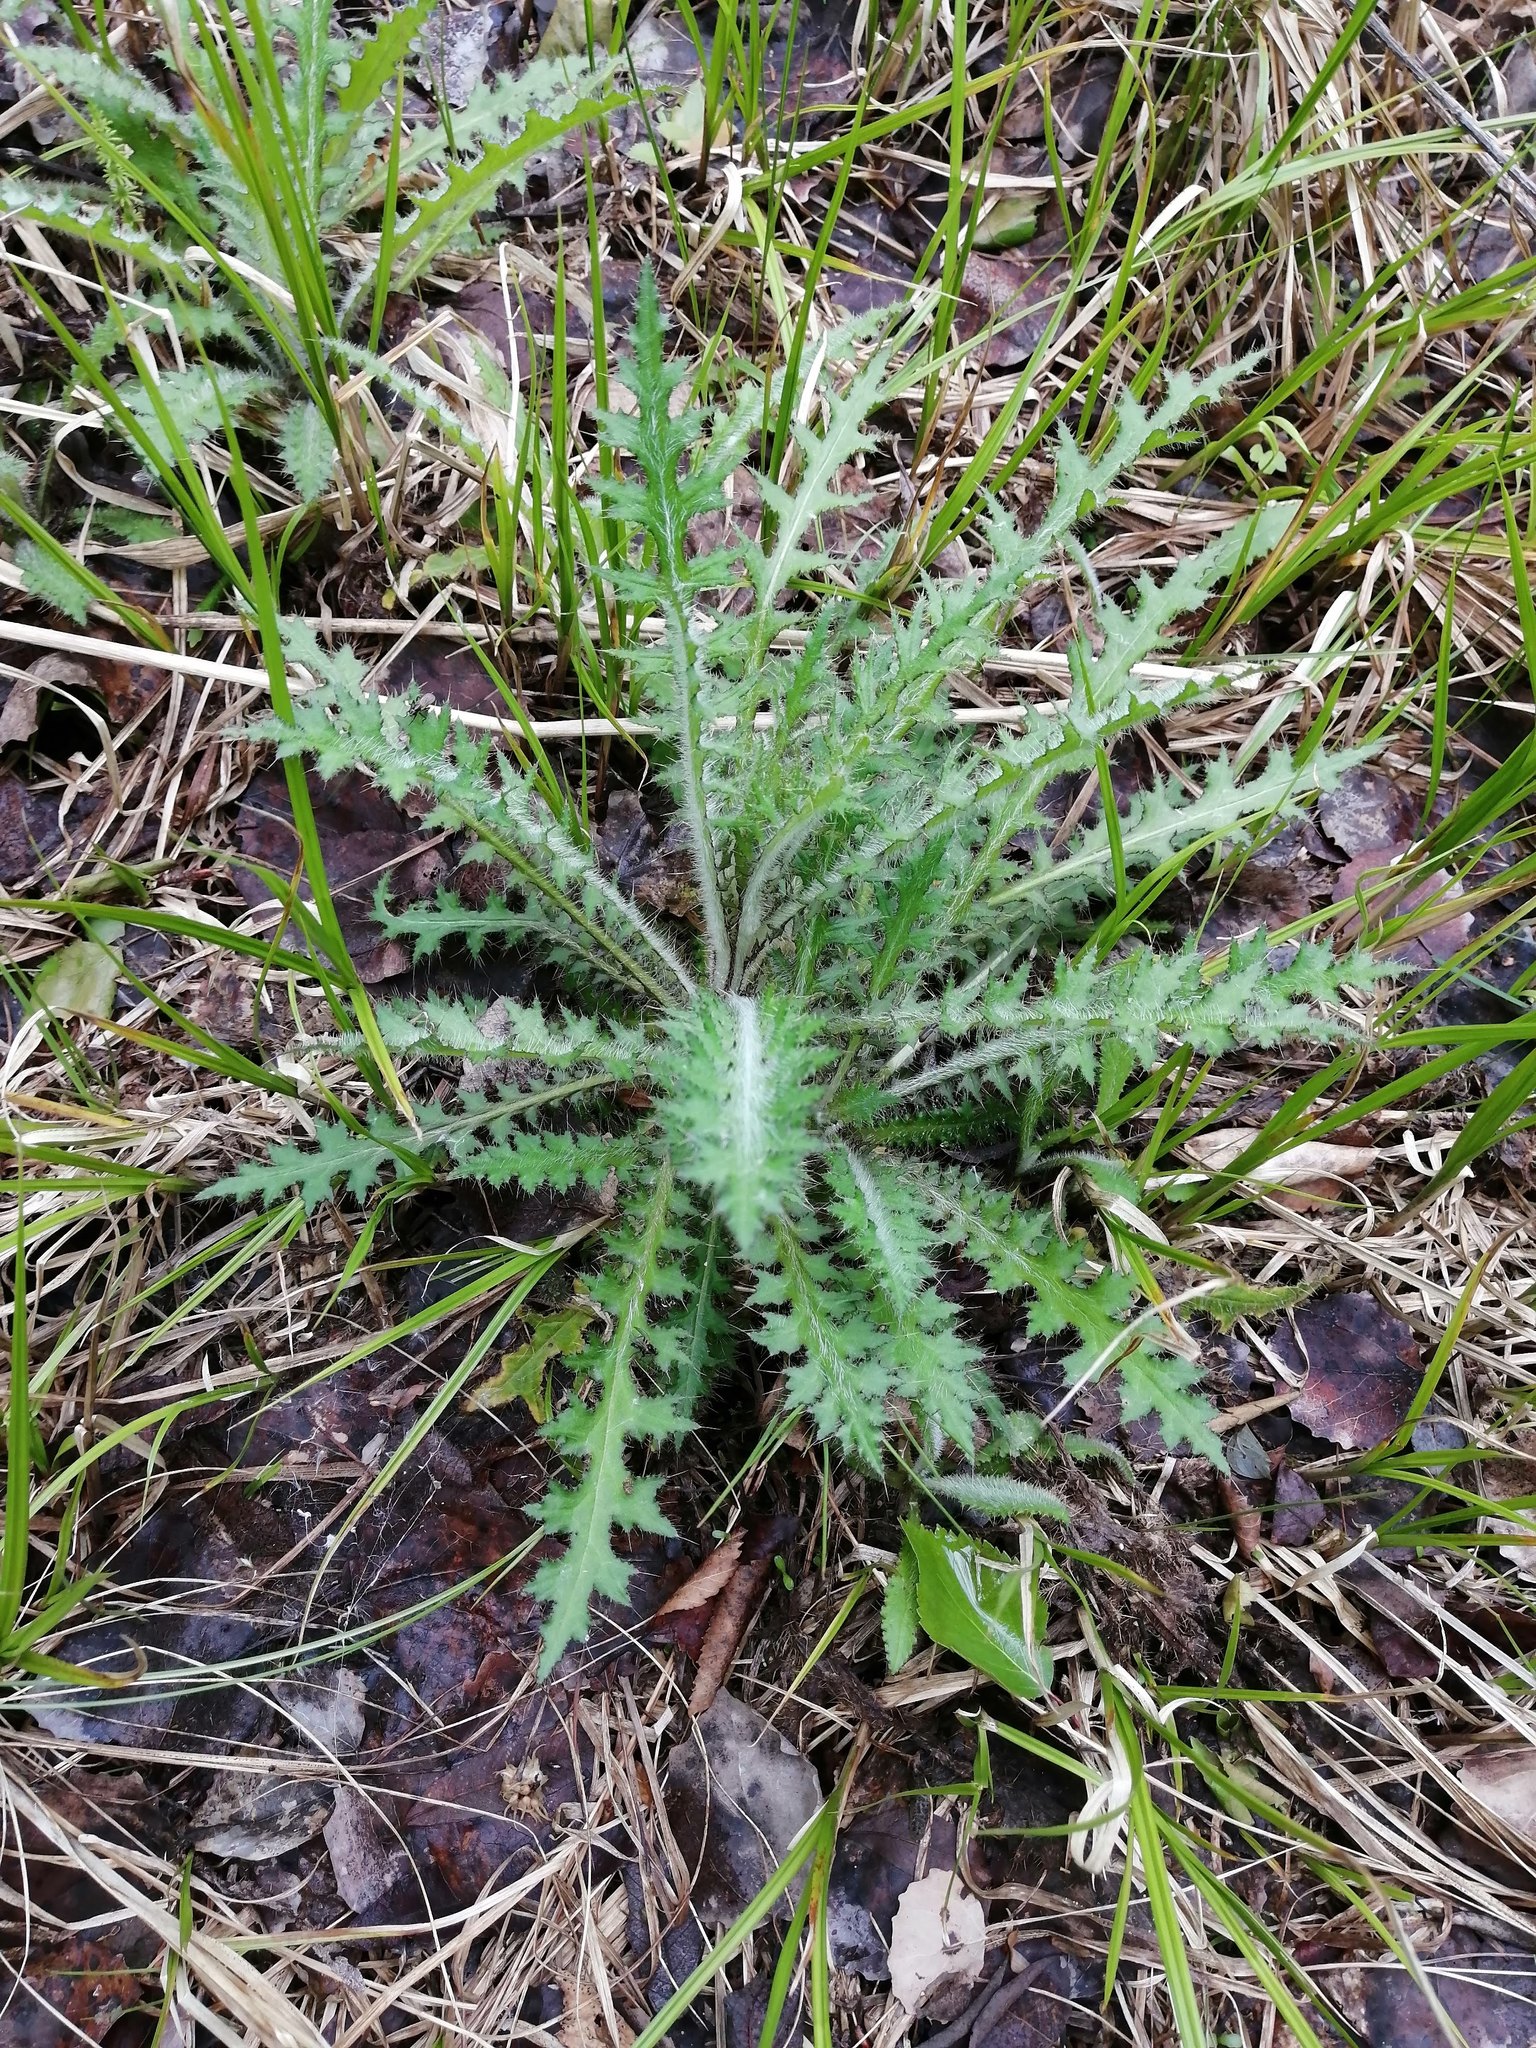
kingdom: Plantae
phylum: Tracheophyta
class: Magnoliopsida
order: Asterales
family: Asteraceae
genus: Cirsium
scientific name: Cirsium palustre
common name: Marsh thistle
